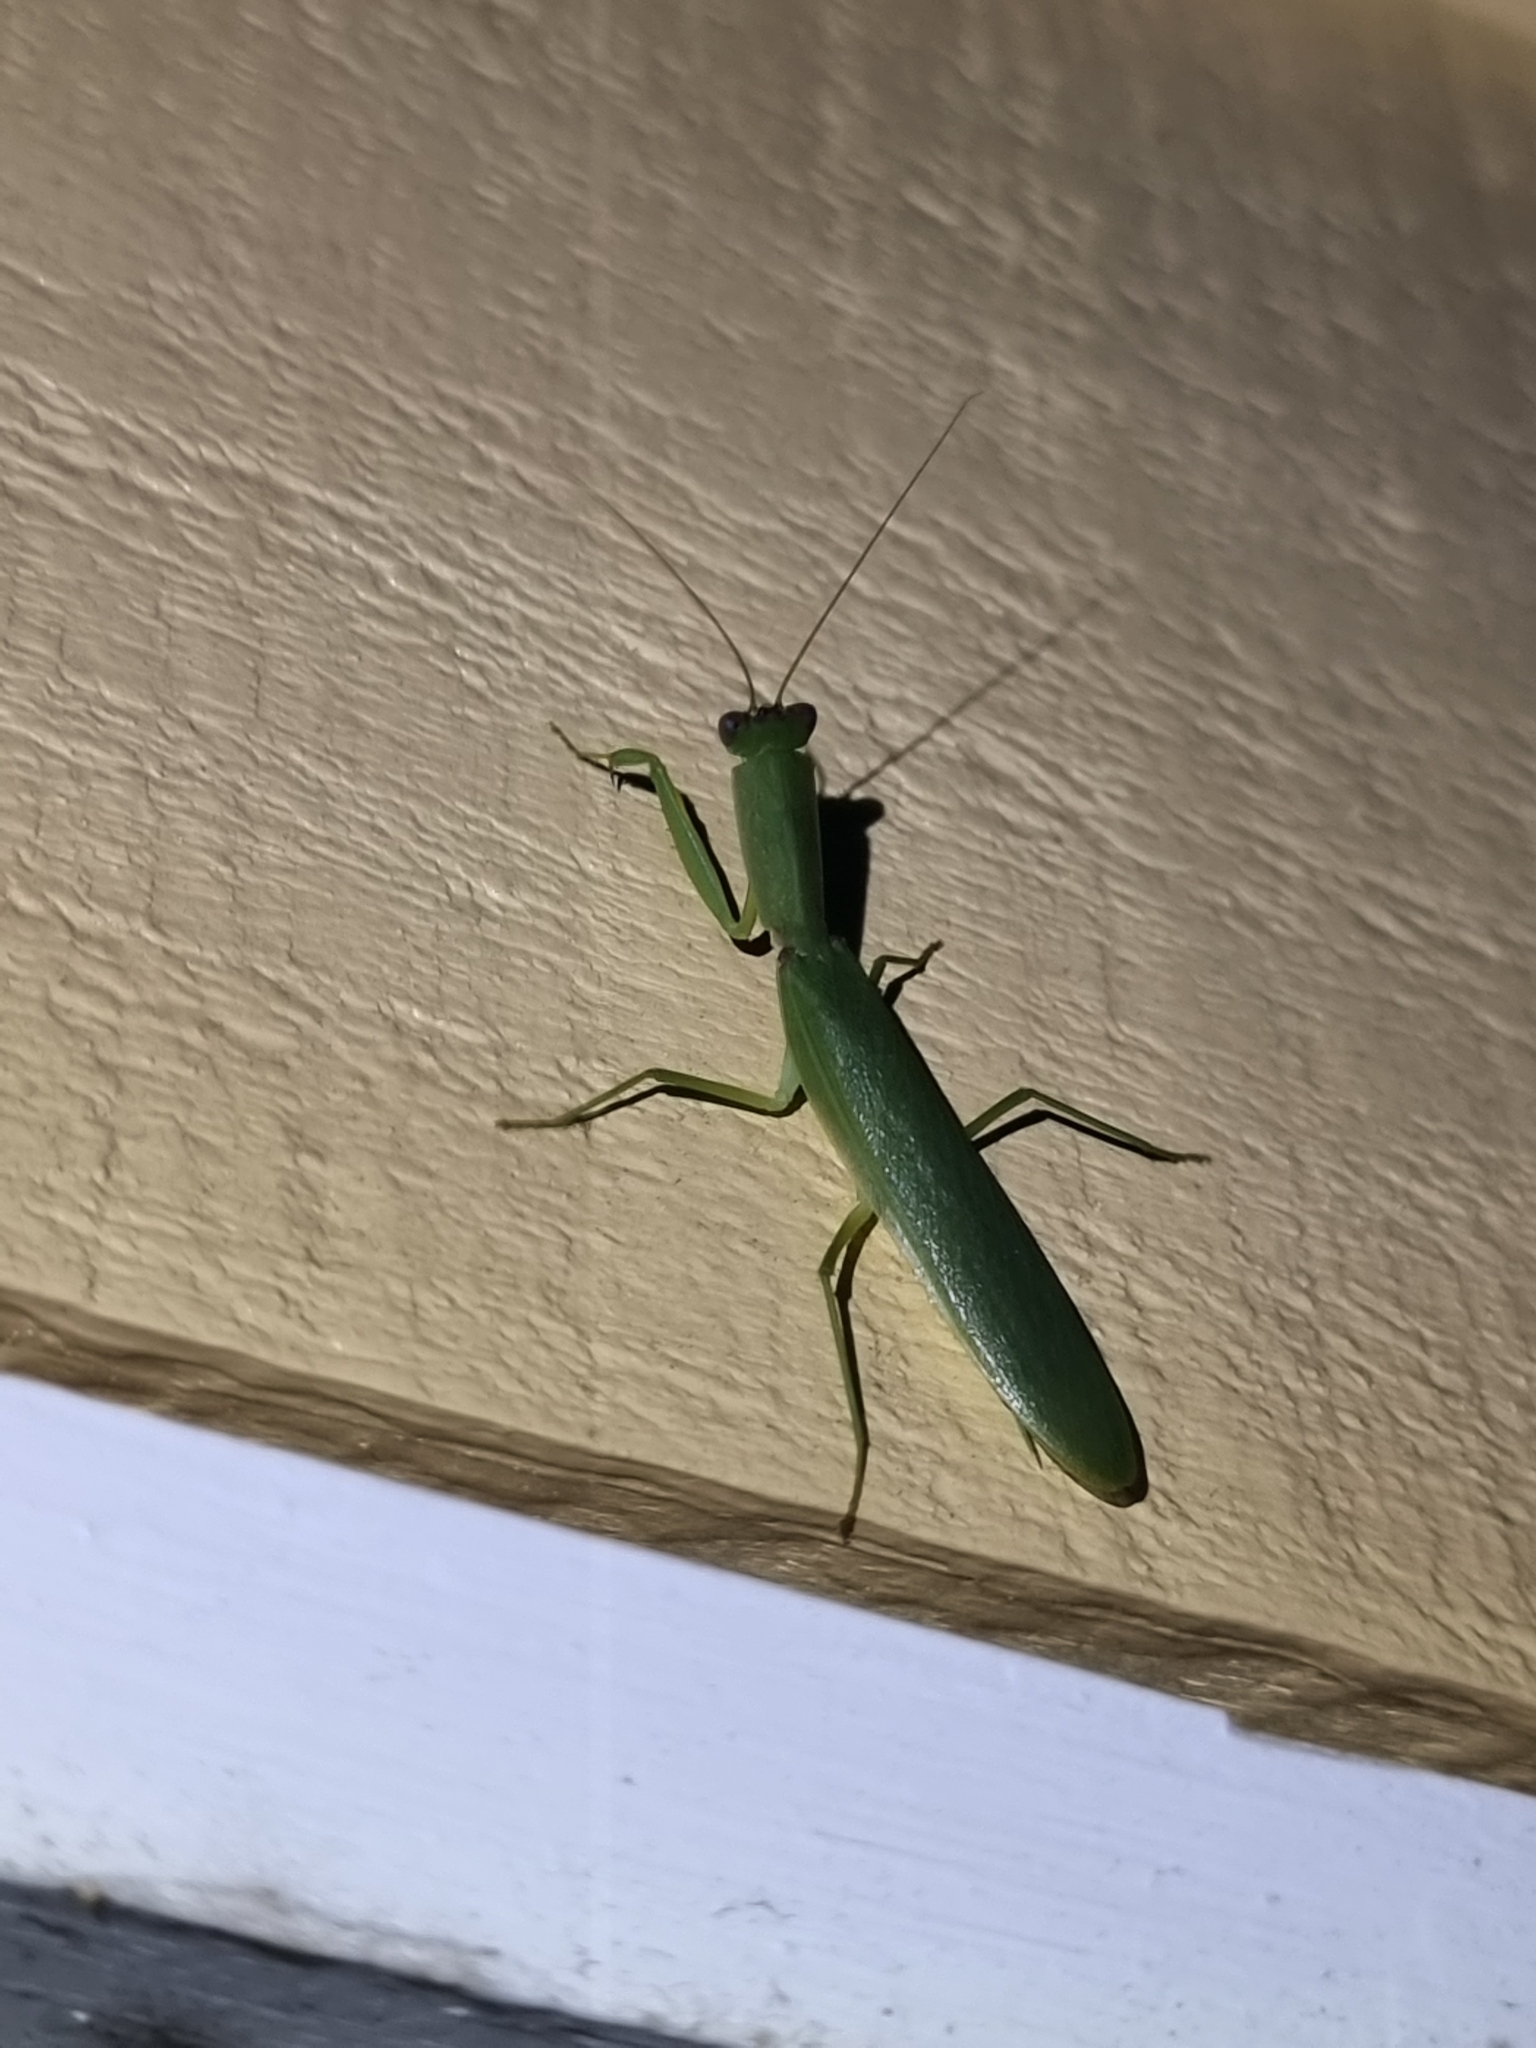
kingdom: Animalia
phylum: Arthropoda
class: Insecta
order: Mantodea
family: Mantidae
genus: Orthodera
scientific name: Orthodera ministralis
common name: Mantis
